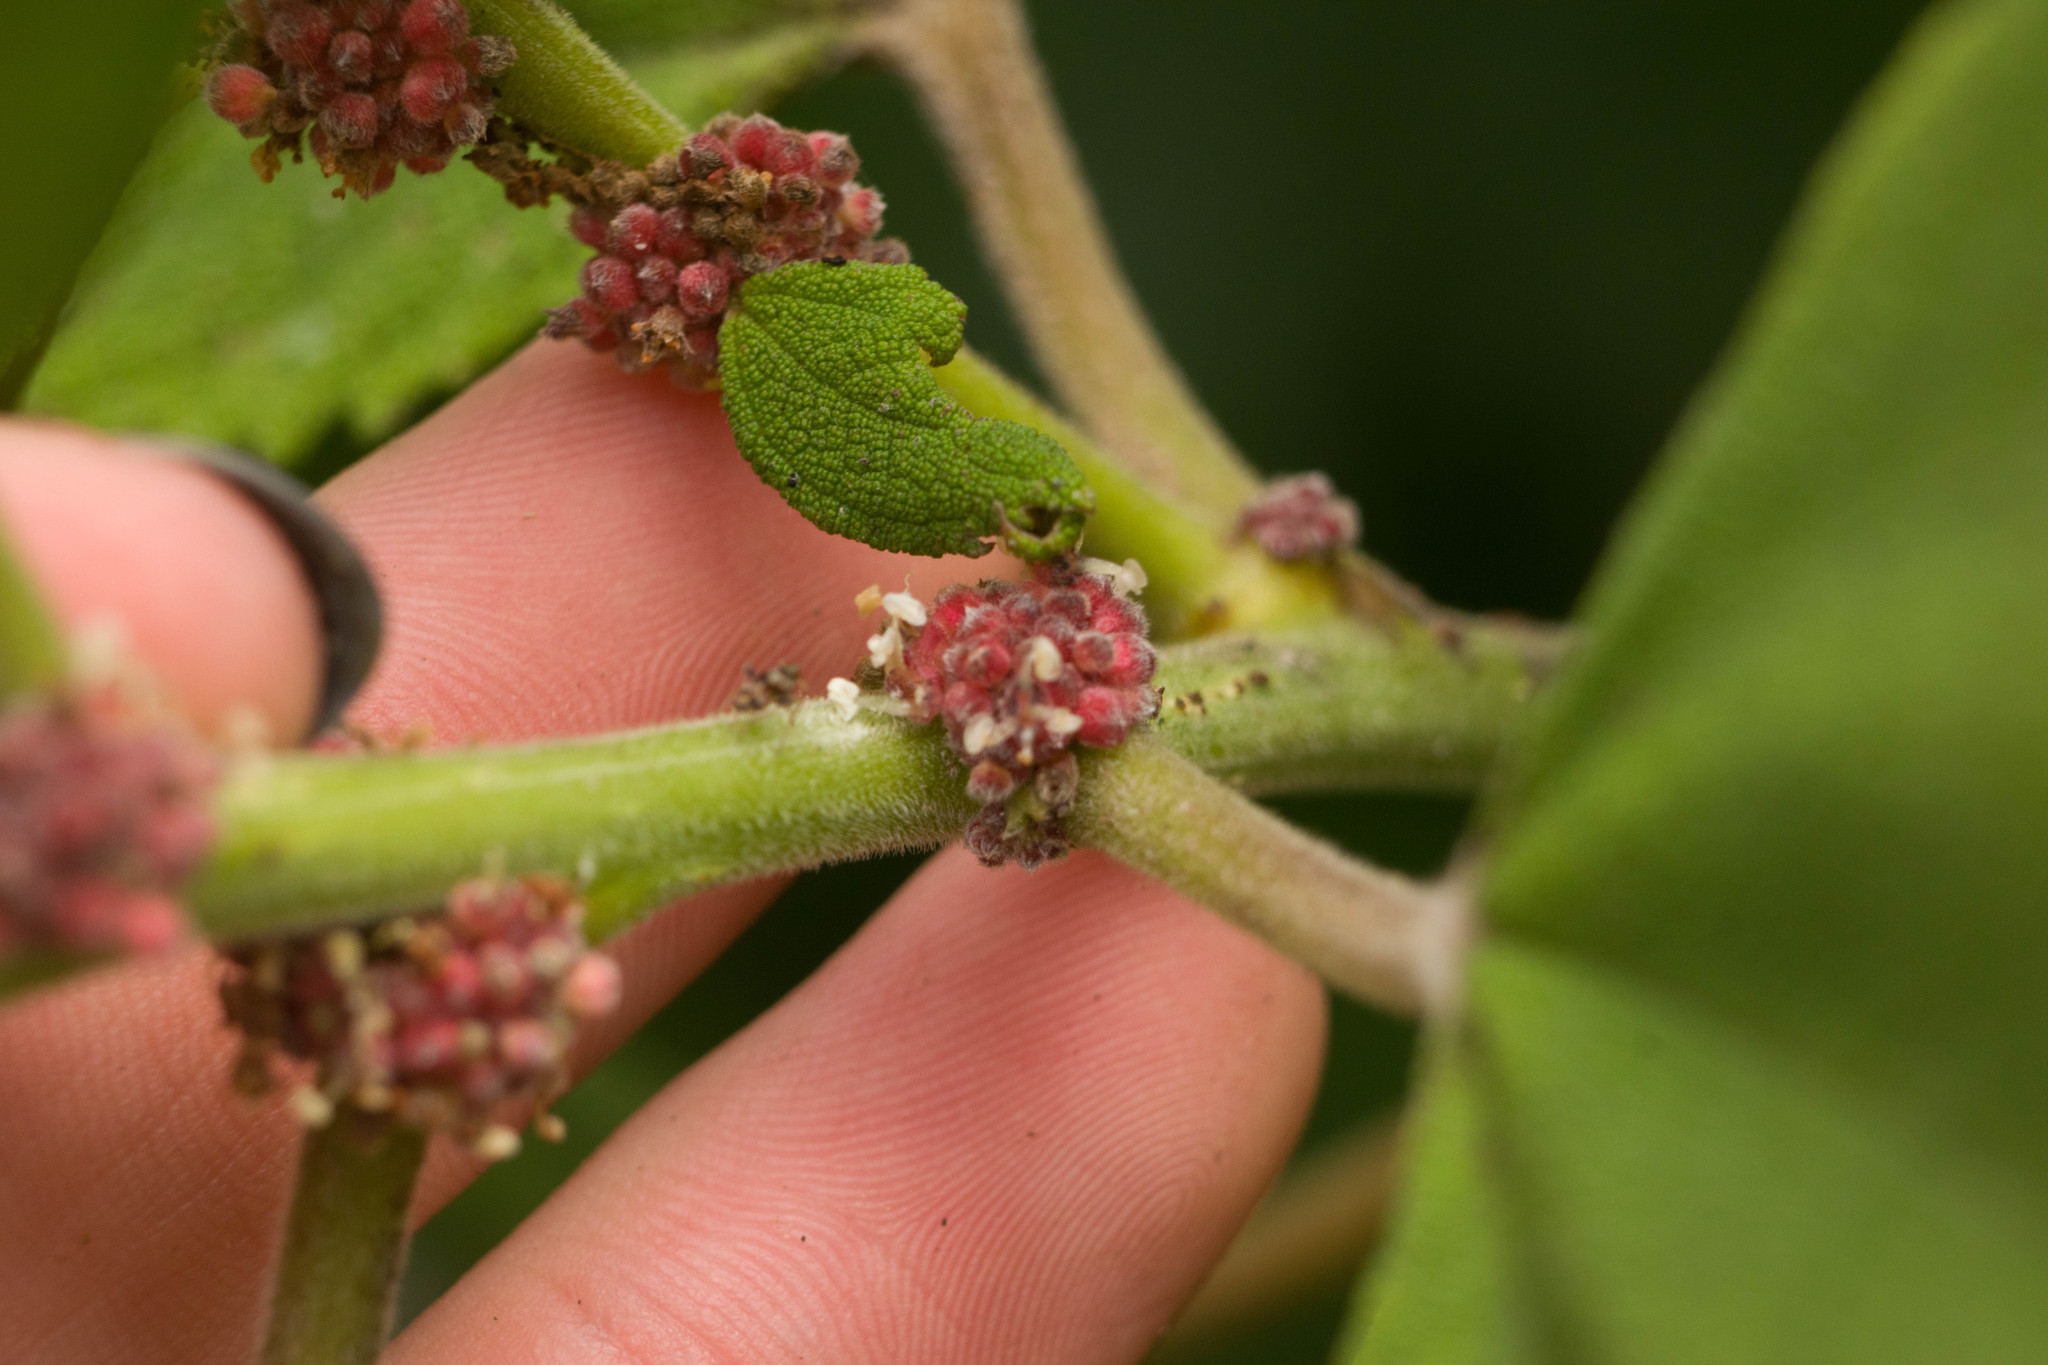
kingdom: Plantae
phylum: Tracheophyta
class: Magnoliopsida
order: Rosales
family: Urticaceae
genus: Pipturus
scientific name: Pipturus albidus
